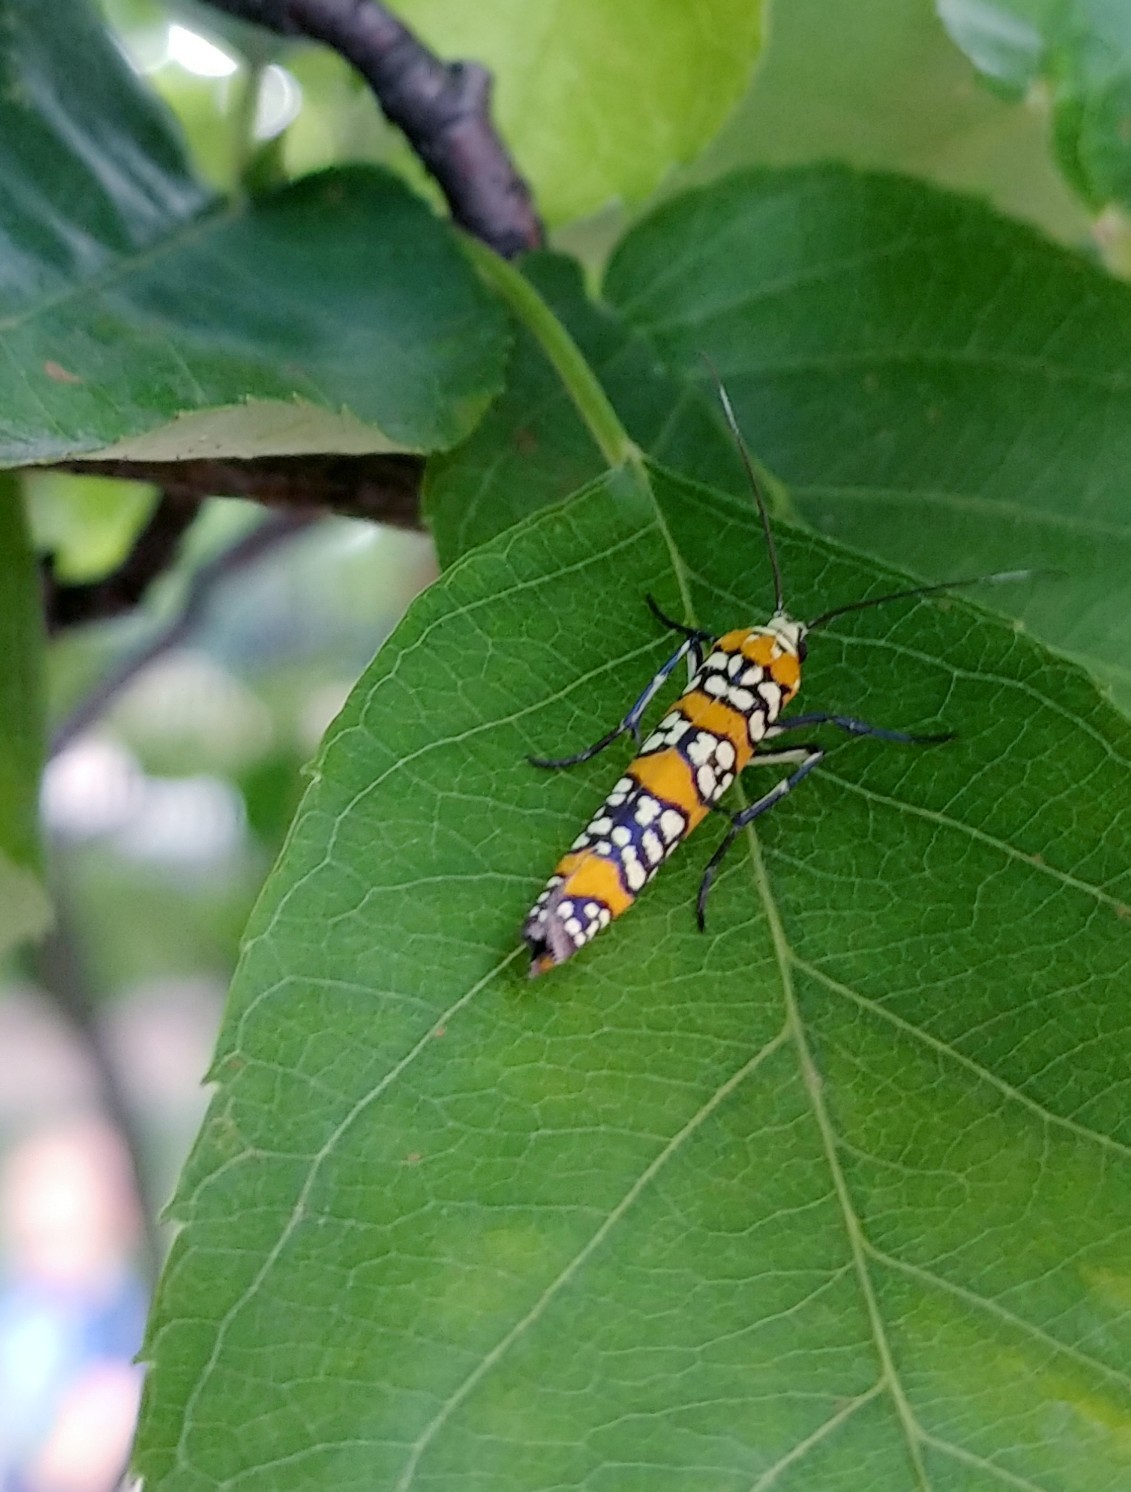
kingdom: Animalia
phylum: Arthropoda
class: Insecta
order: Lepidoptera
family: Attevidae
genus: Atteva
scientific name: Atteva punctella
